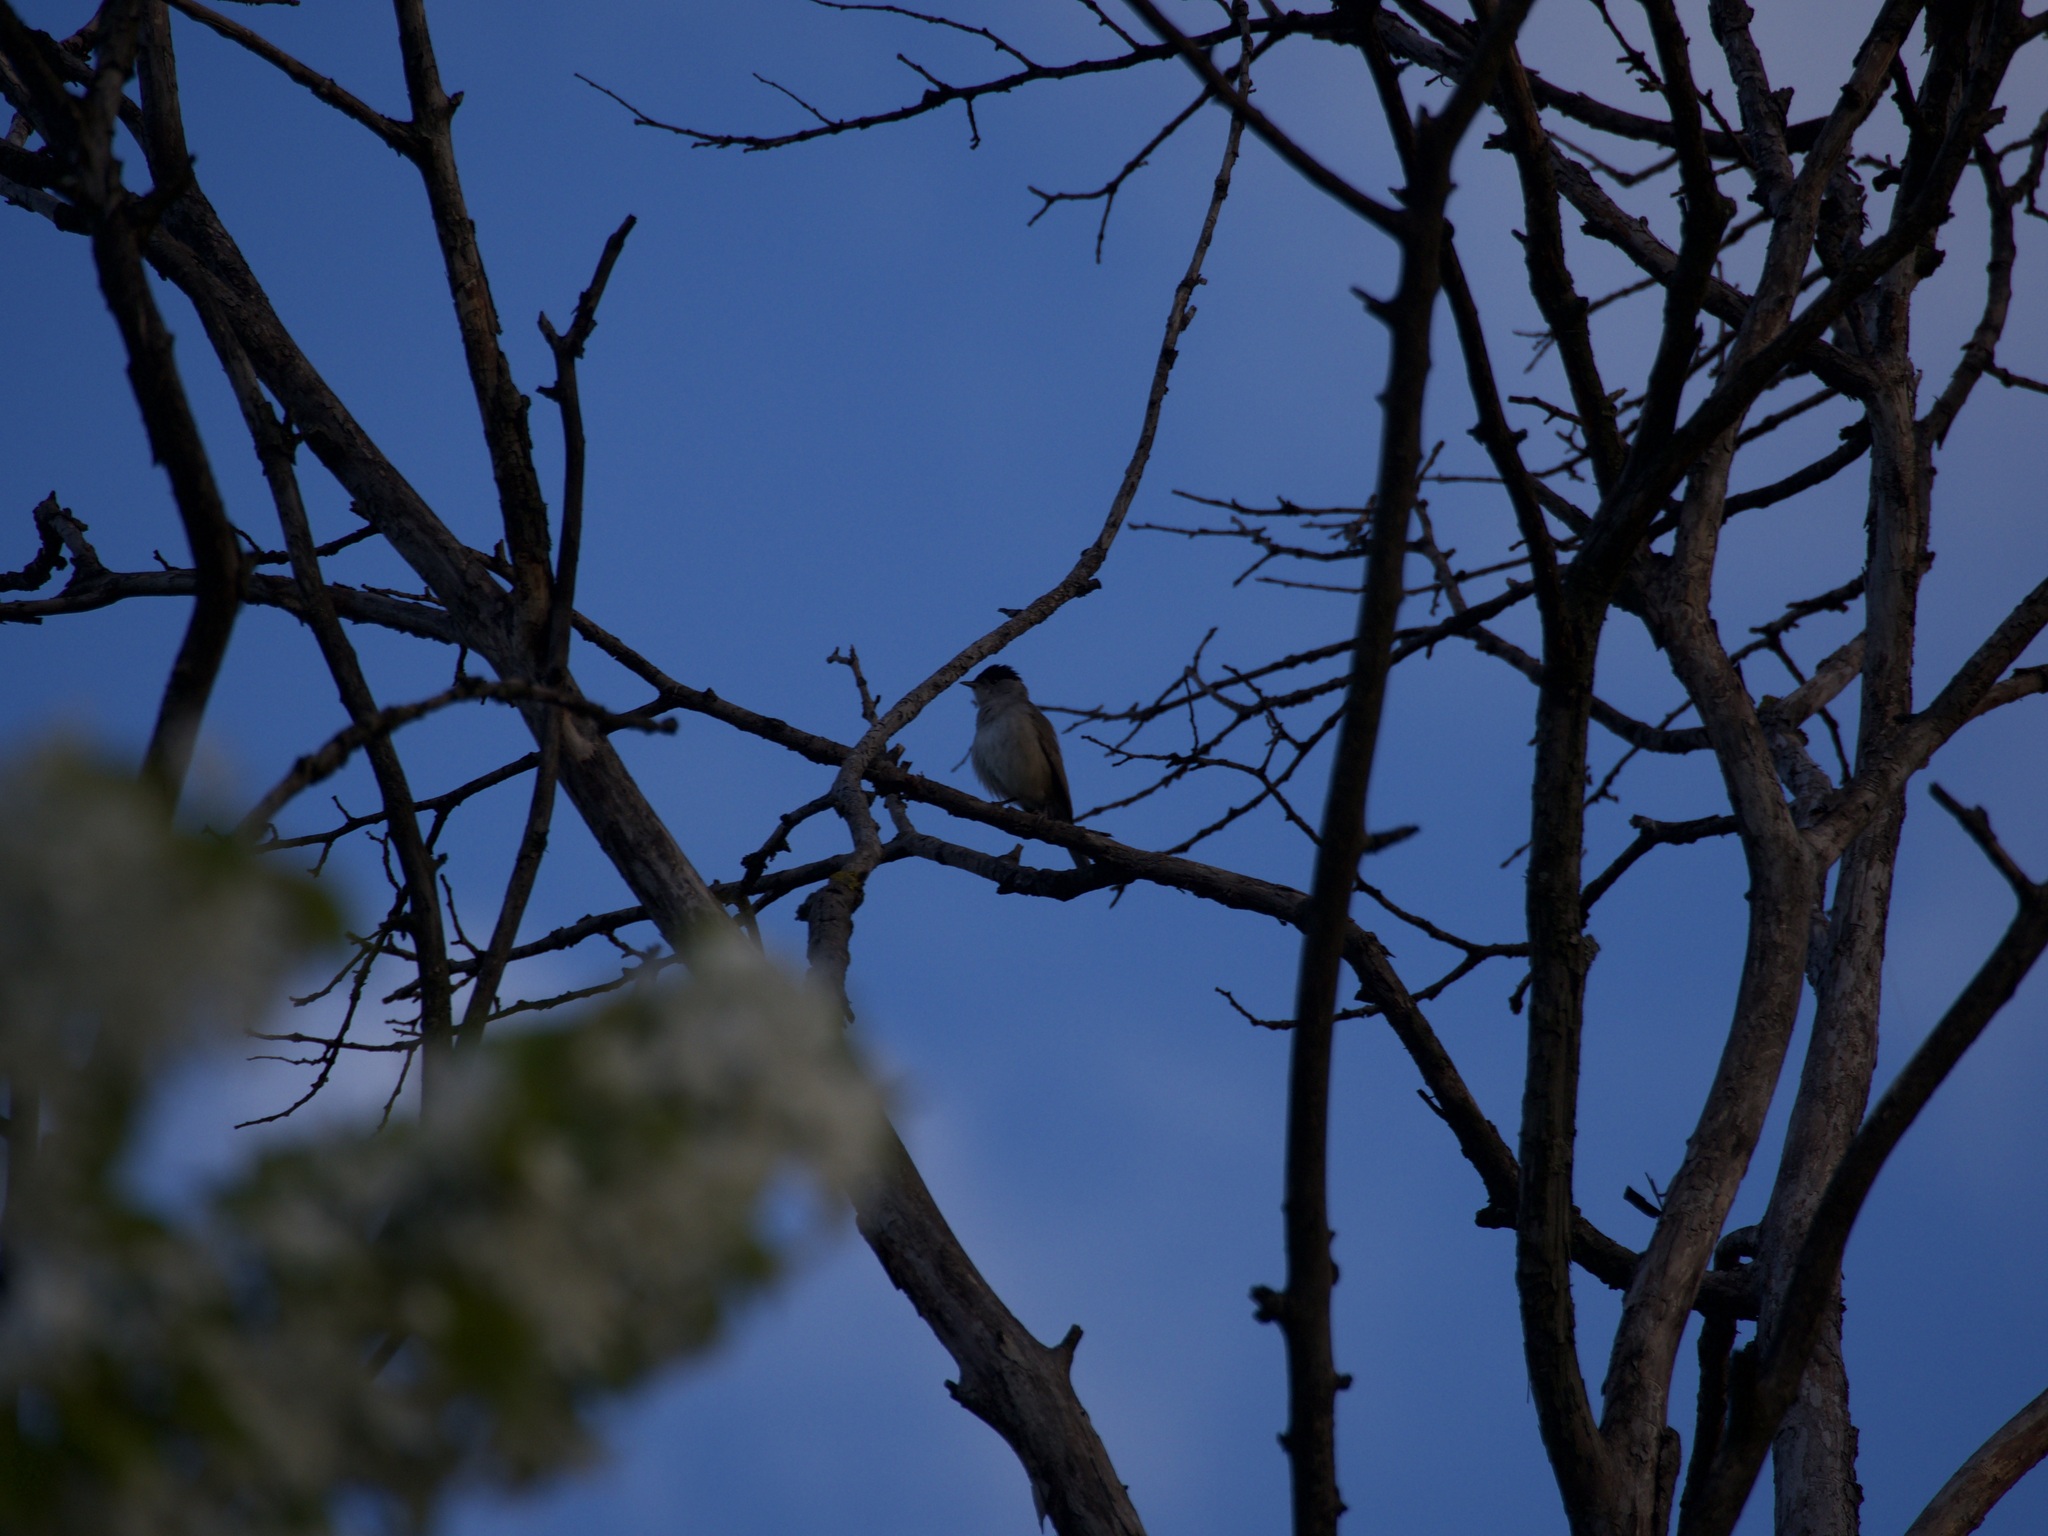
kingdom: Animalia
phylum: Chordata
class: Aves
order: Passeriformes
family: Sylviidae
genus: Sylvia
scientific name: Sylvia atricapilla
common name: Eurasian blackcap
